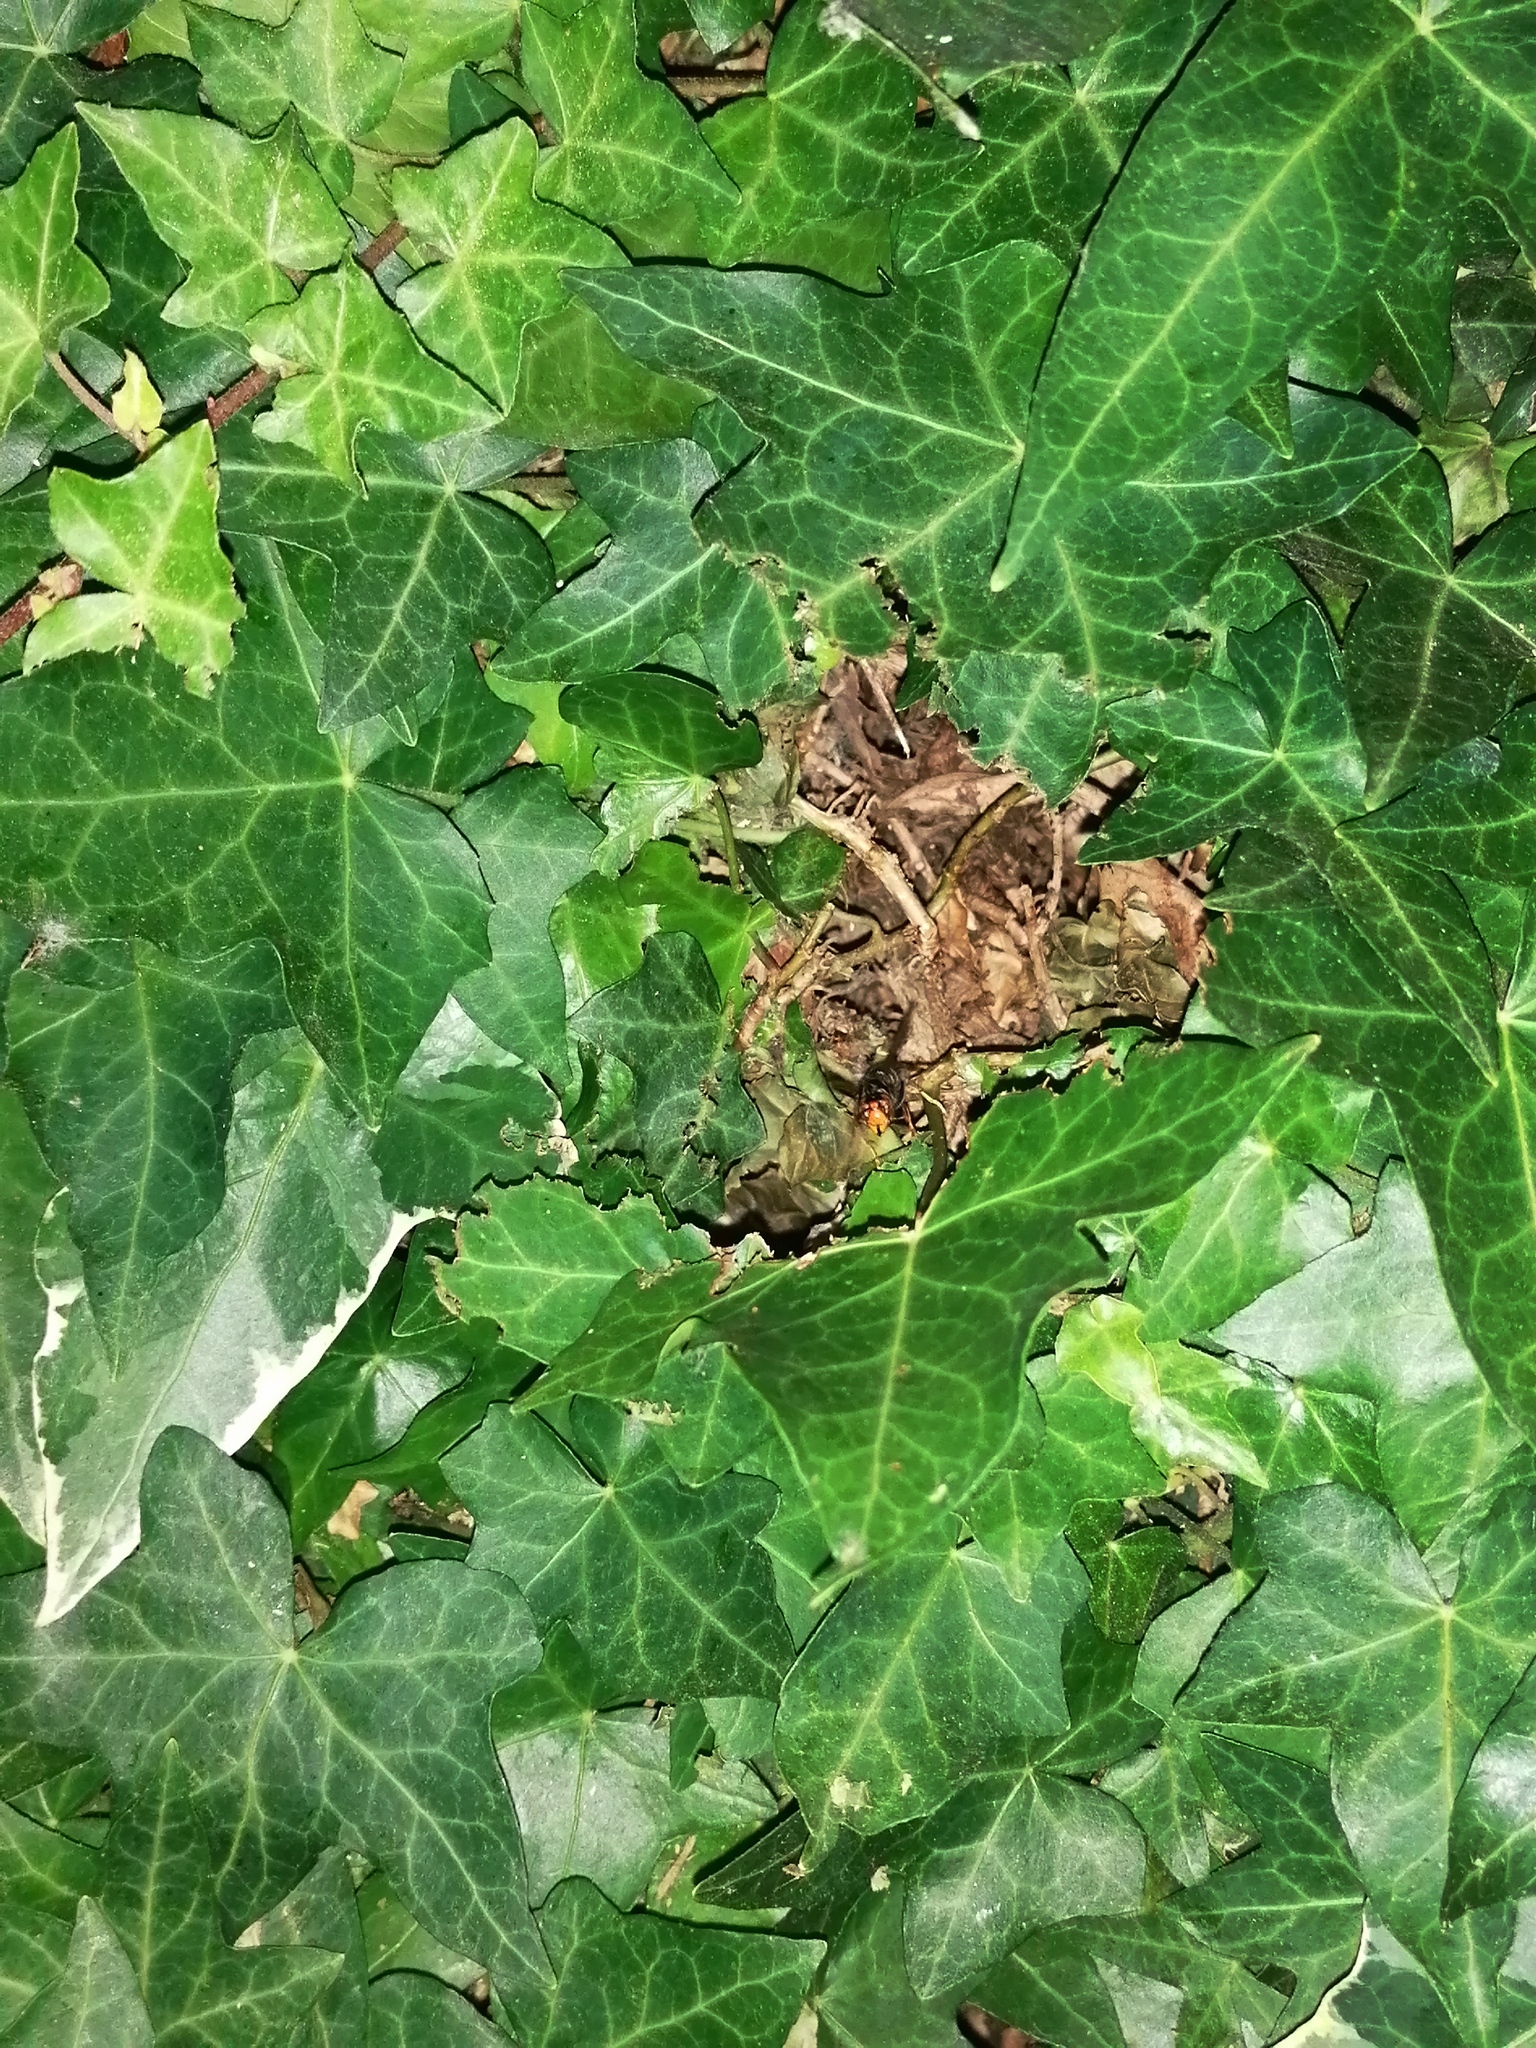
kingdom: Animalia
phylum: Arthropoda
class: Insecta
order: Hymenoptera
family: Vespidae
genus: Vespa
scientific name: Vespa velutina
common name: Asian hornet
